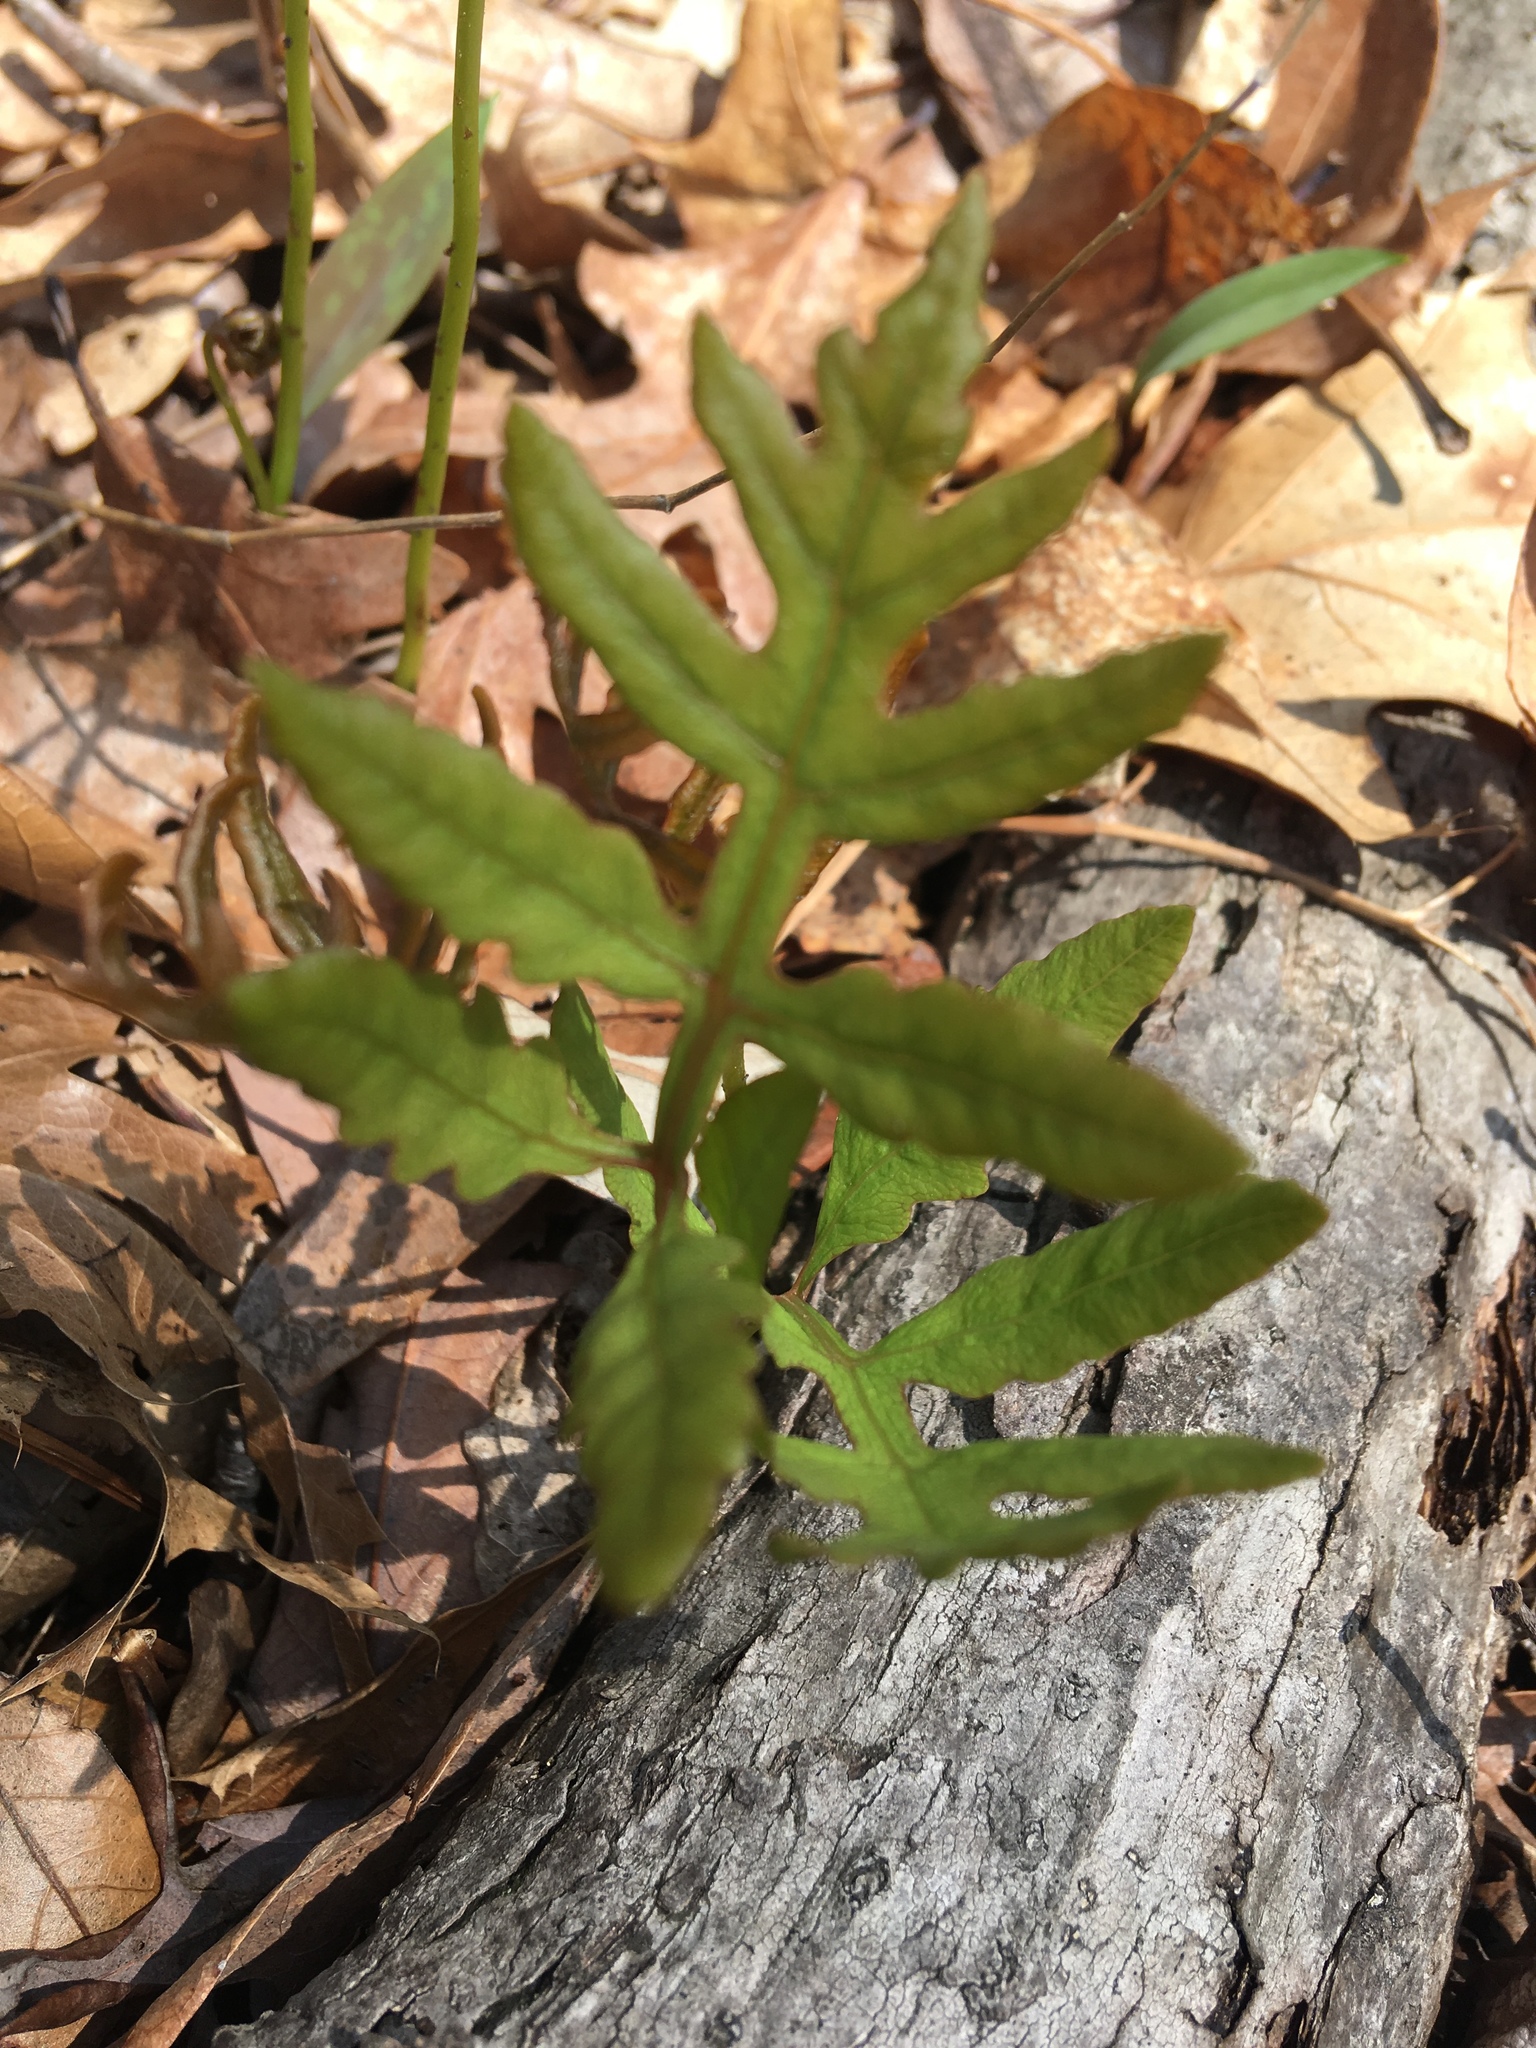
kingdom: Plantae
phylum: Tracheophyta
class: Polypodiopsida
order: Polypodiales
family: Onocleaceae
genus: Onoclea
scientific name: Onoclea sensibilis
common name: Sensitive fern
